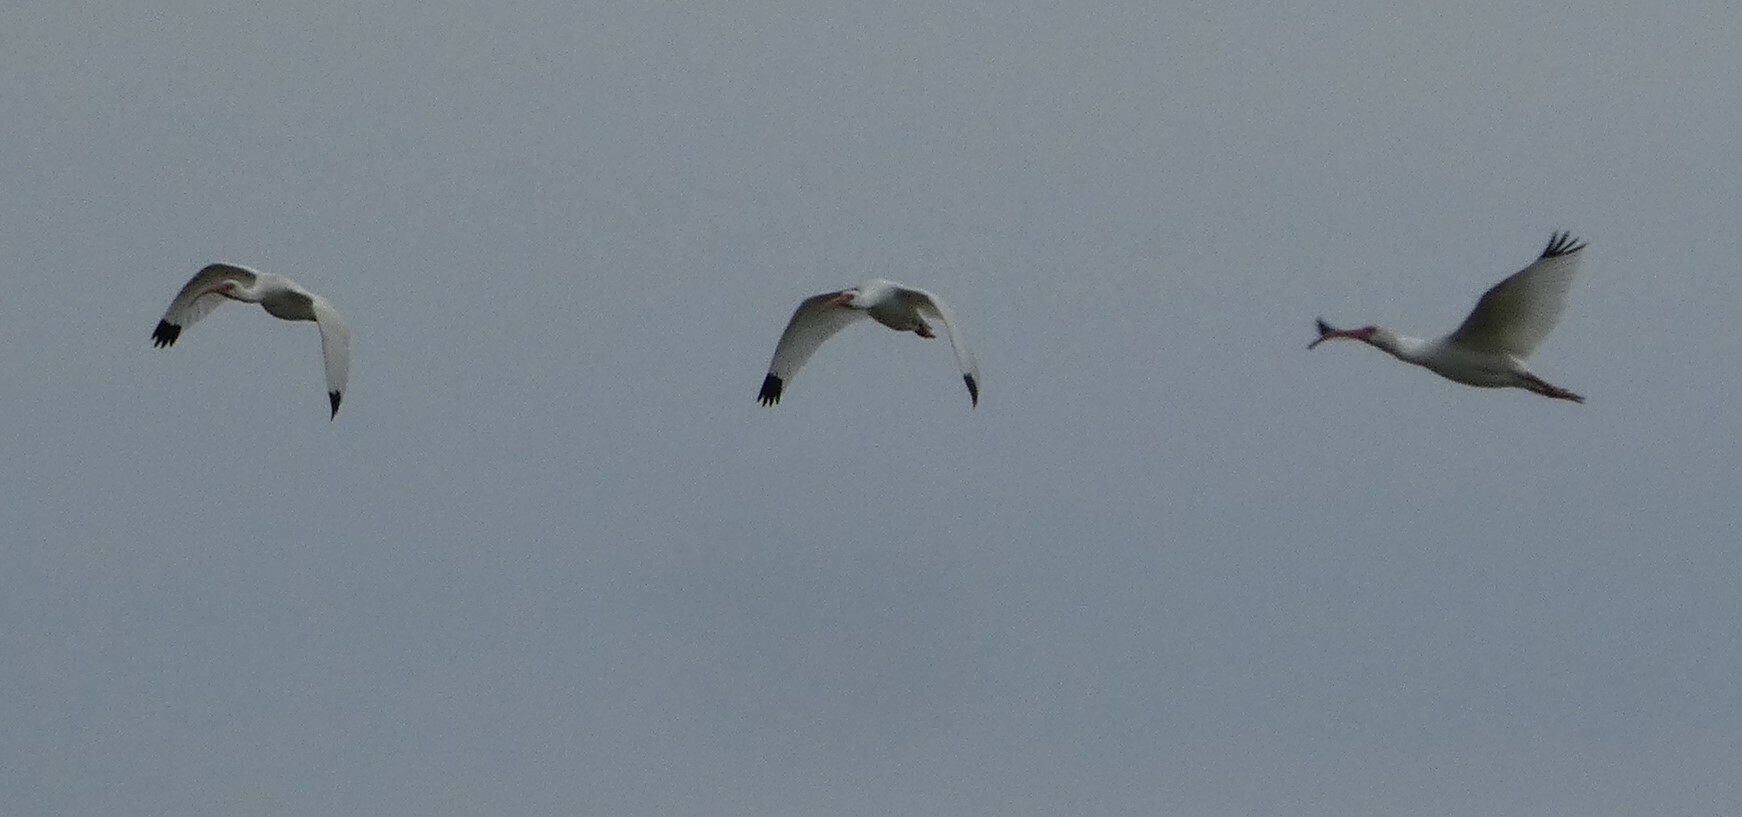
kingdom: Animalia
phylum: Chordata
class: Aves
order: Pelecaniformes
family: Threskiornithidae
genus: Eudocimus
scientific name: Eudocimus albus
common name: White ibis
